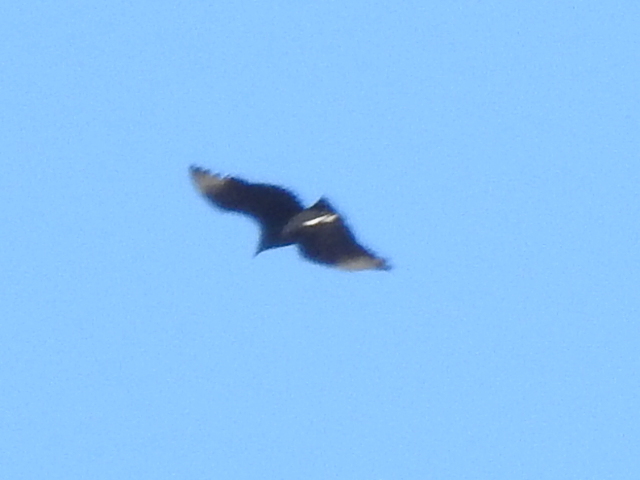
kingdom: Animalia
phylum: Chordata
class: Aves
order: Accipitriformes
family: Cathartidae
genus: Coragyps
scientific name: Coragyps atratus
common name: Black vulture
